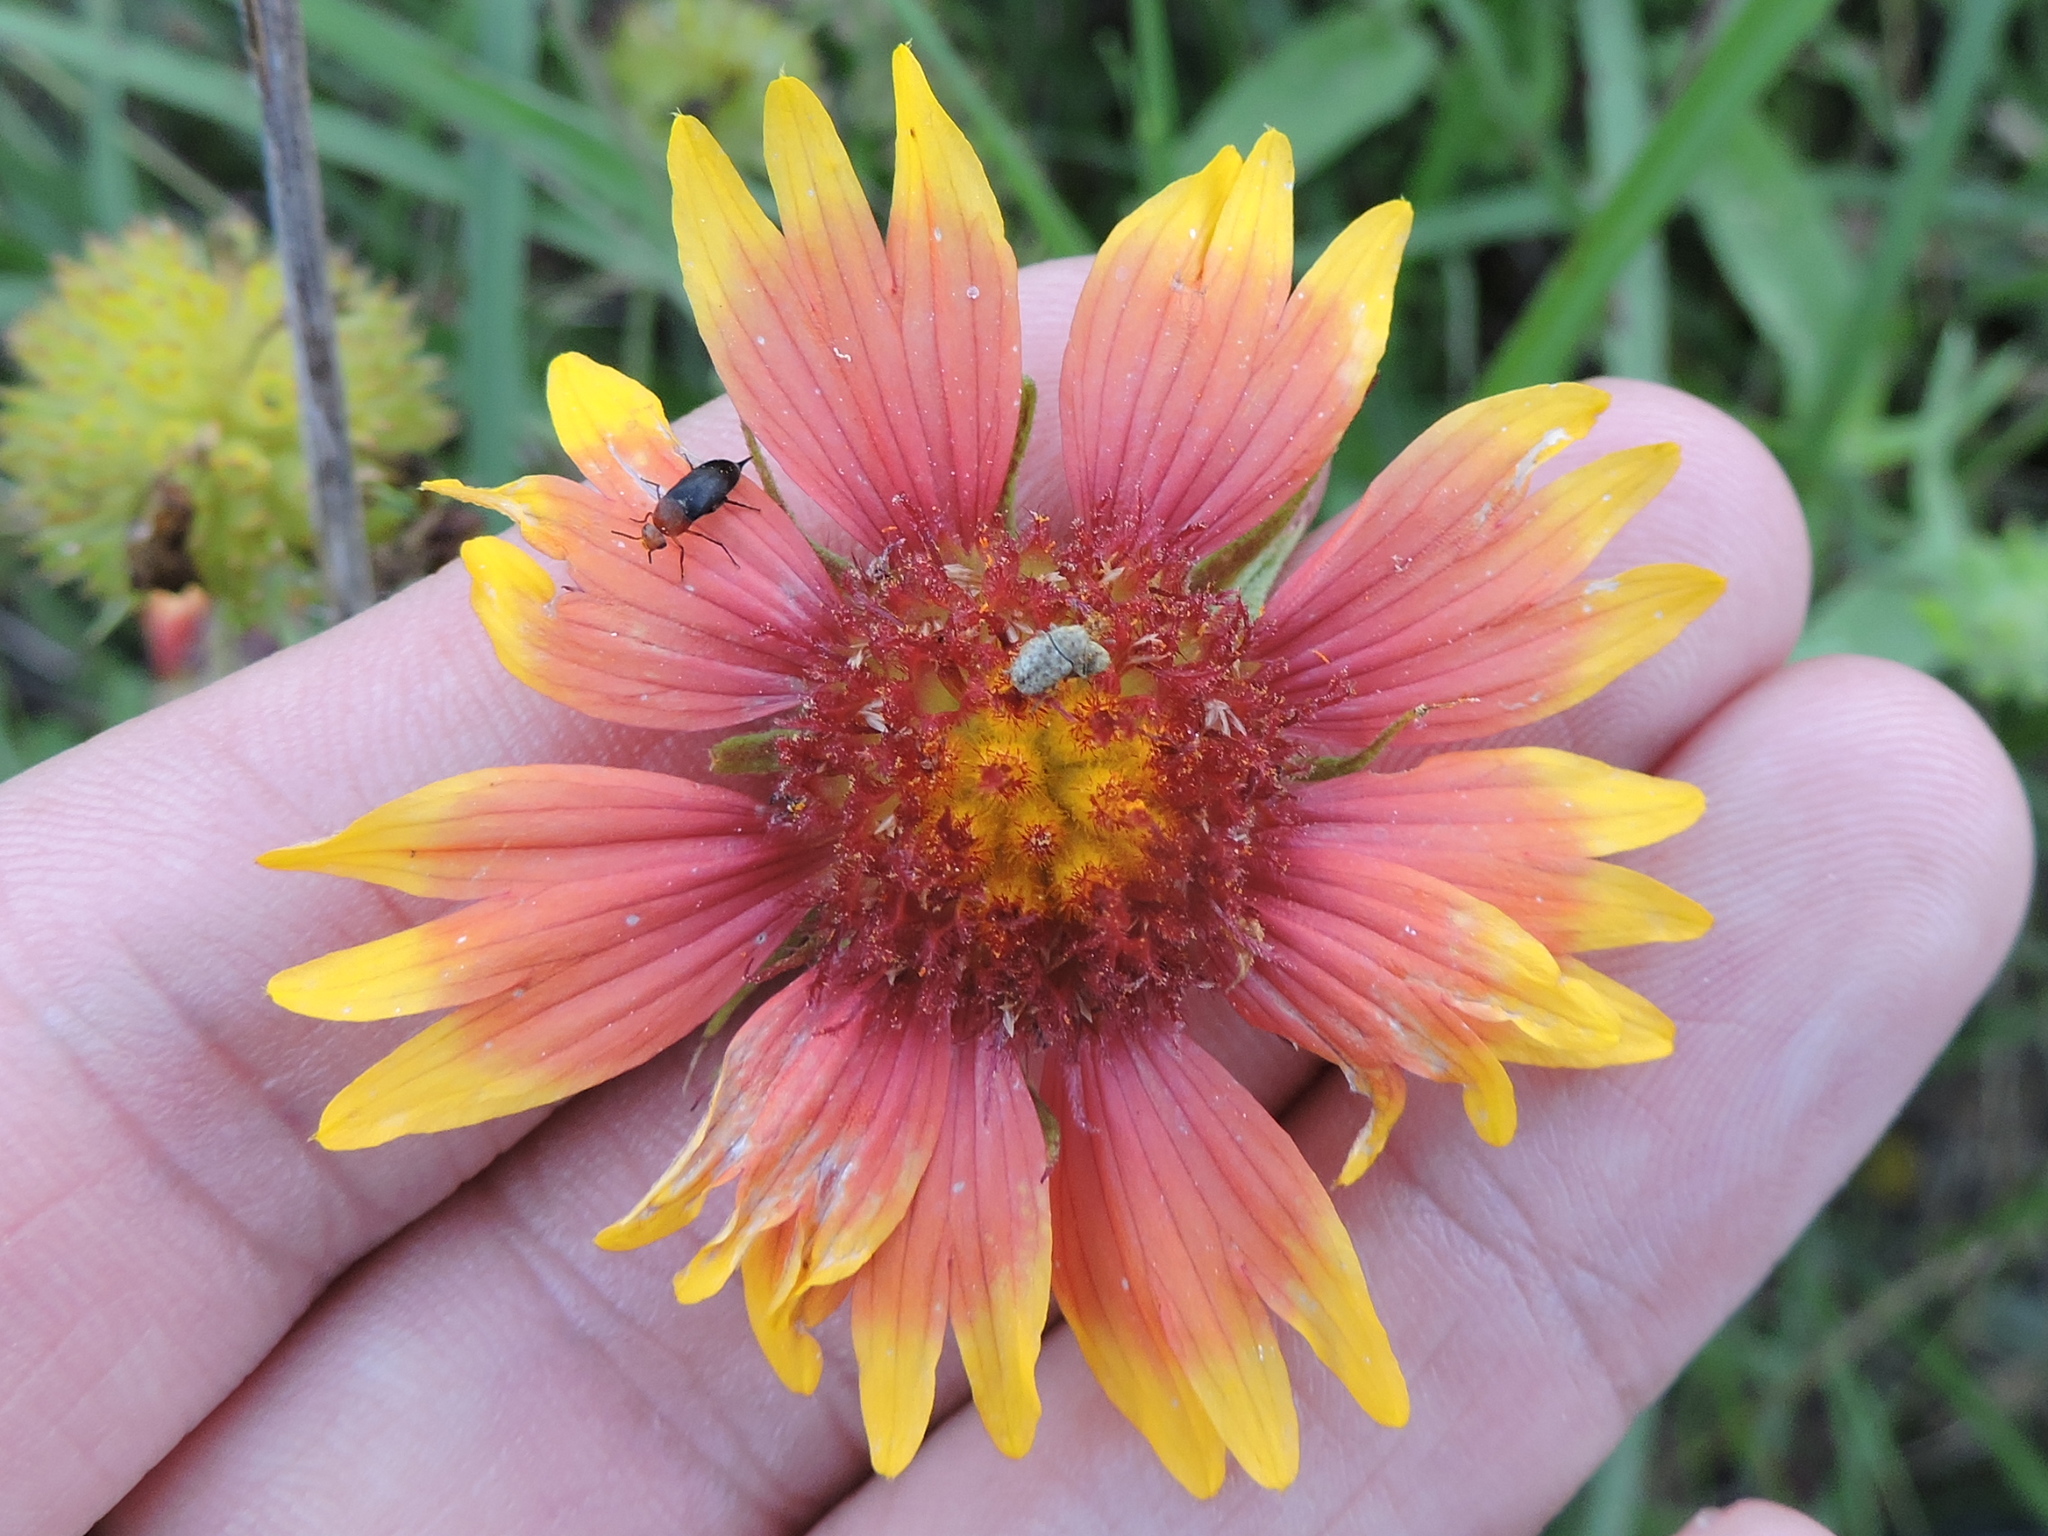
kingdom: Plantae
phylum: Tracheophyta
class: Magnoliopsida
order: Asterales
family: Asteraceae
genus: Gaillardia
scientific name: Gaillardia pulchella
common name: Firewheel
